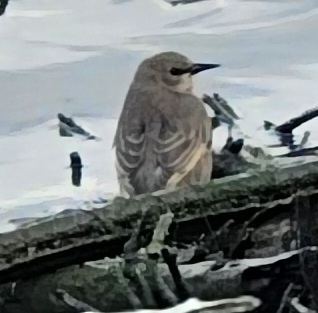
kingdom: Animalia
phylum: Chordata
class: Aves
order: Passeriformes
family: Sturnidae
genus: Sturnus
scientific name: Sturnus vulgaris
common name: Common starling
